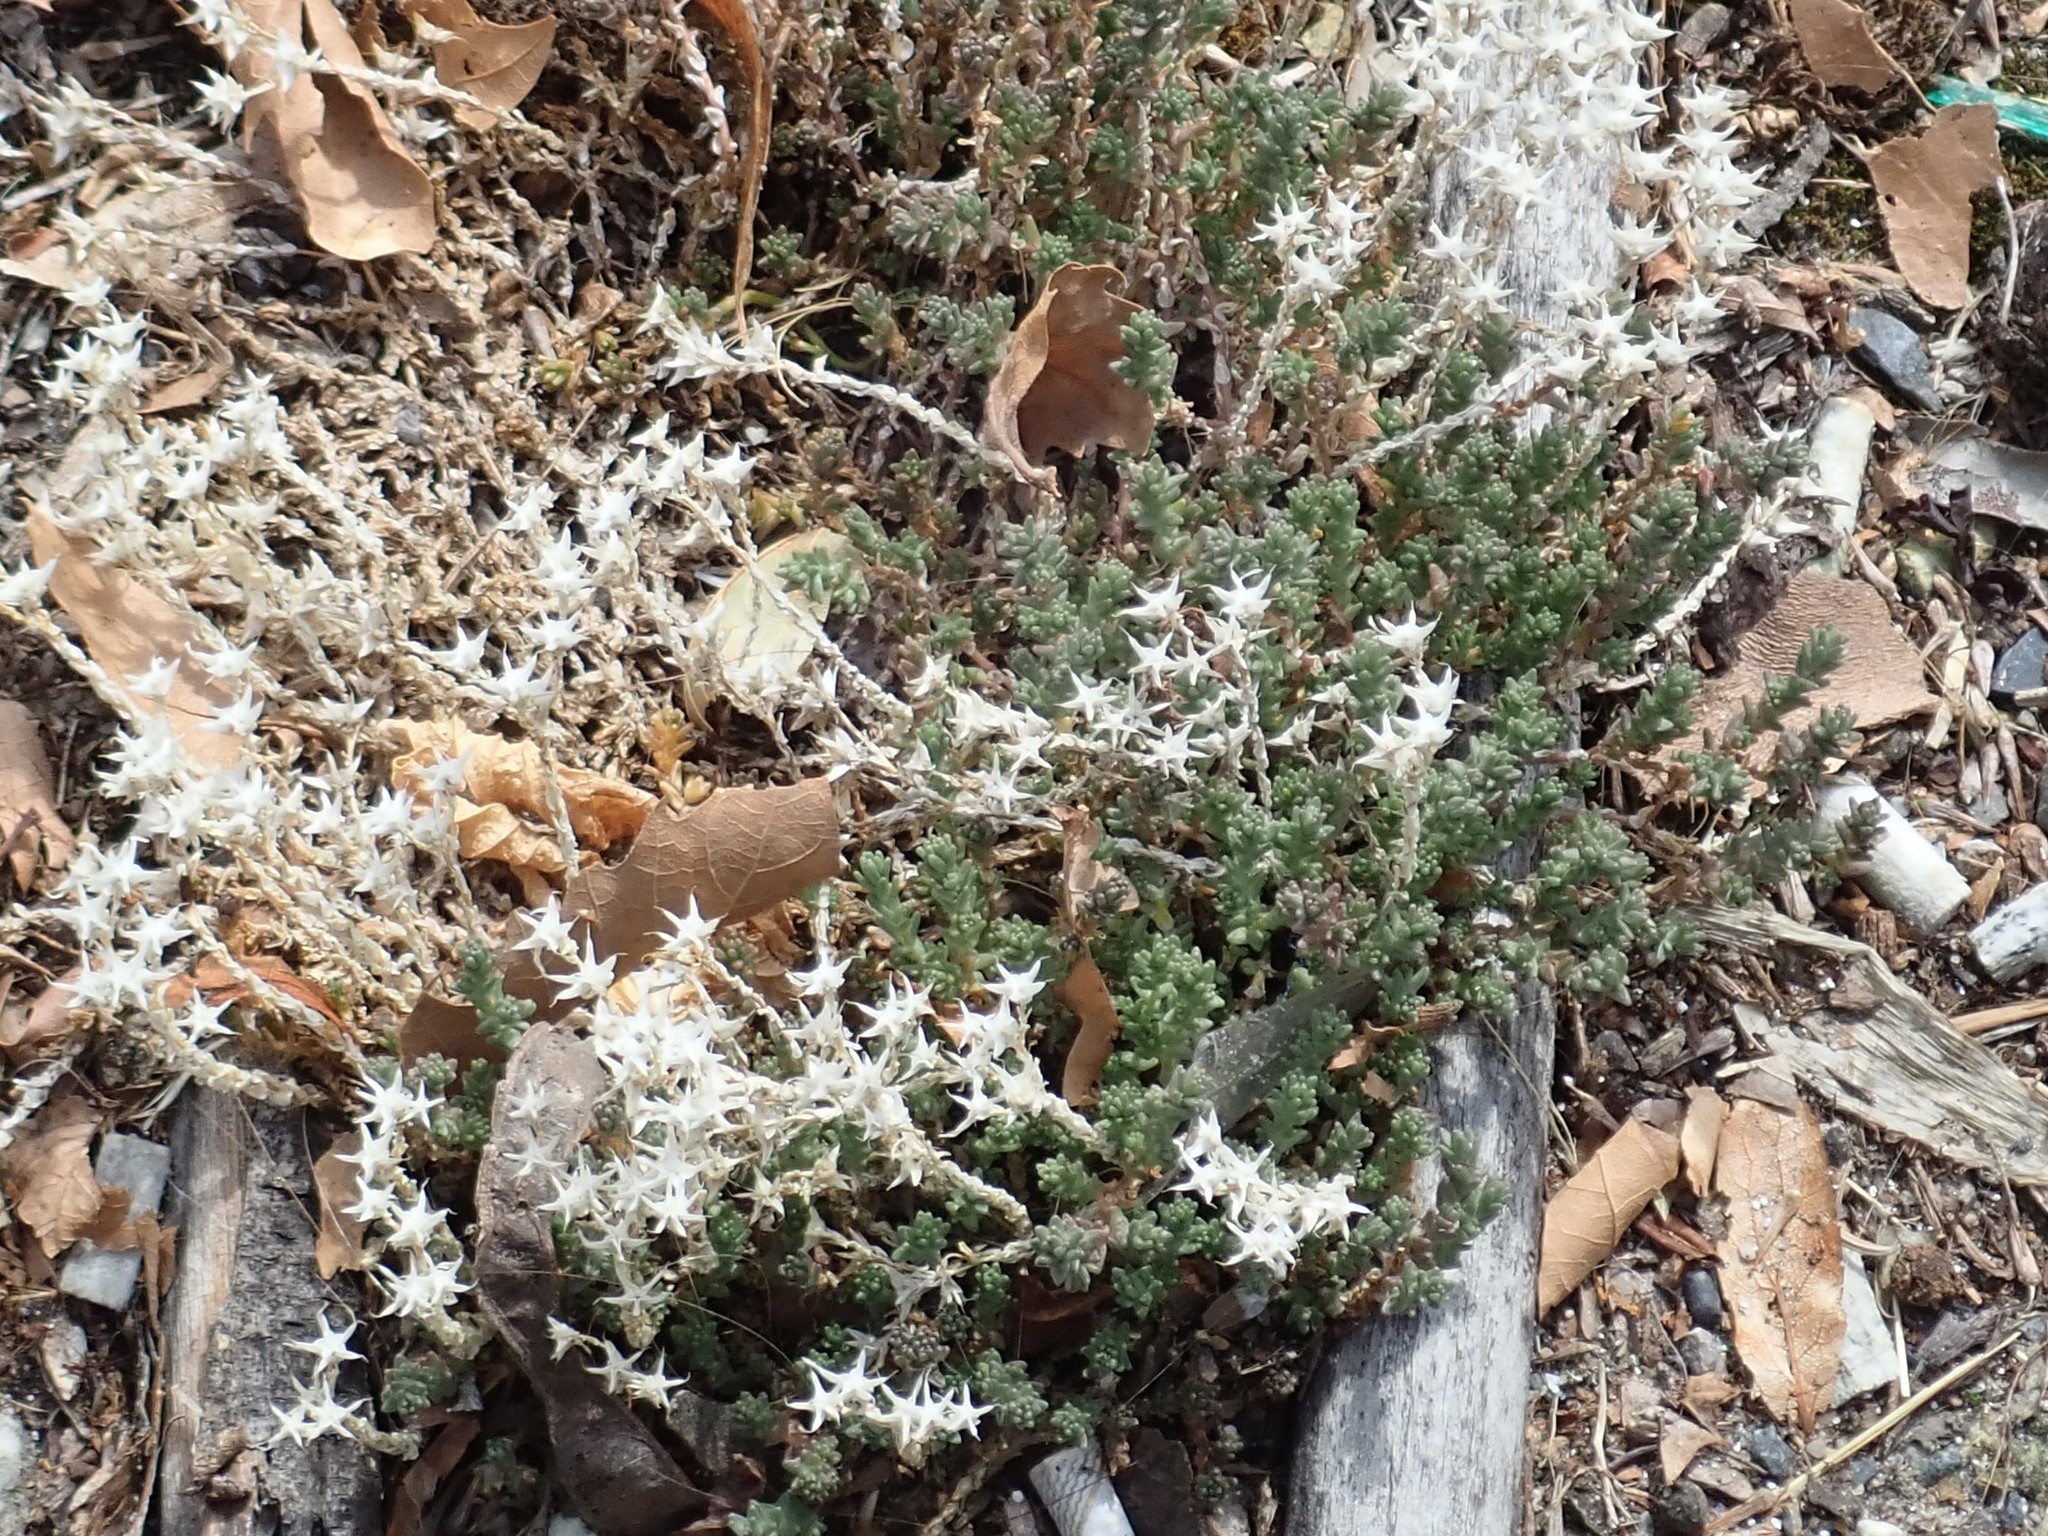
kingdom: Plantae
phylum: Tracheophyta
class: Magnoliopsida
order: Saxifragales
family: Crassulaceae
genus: Sedum
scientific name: Sedum acre
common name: Biting stonecrop
